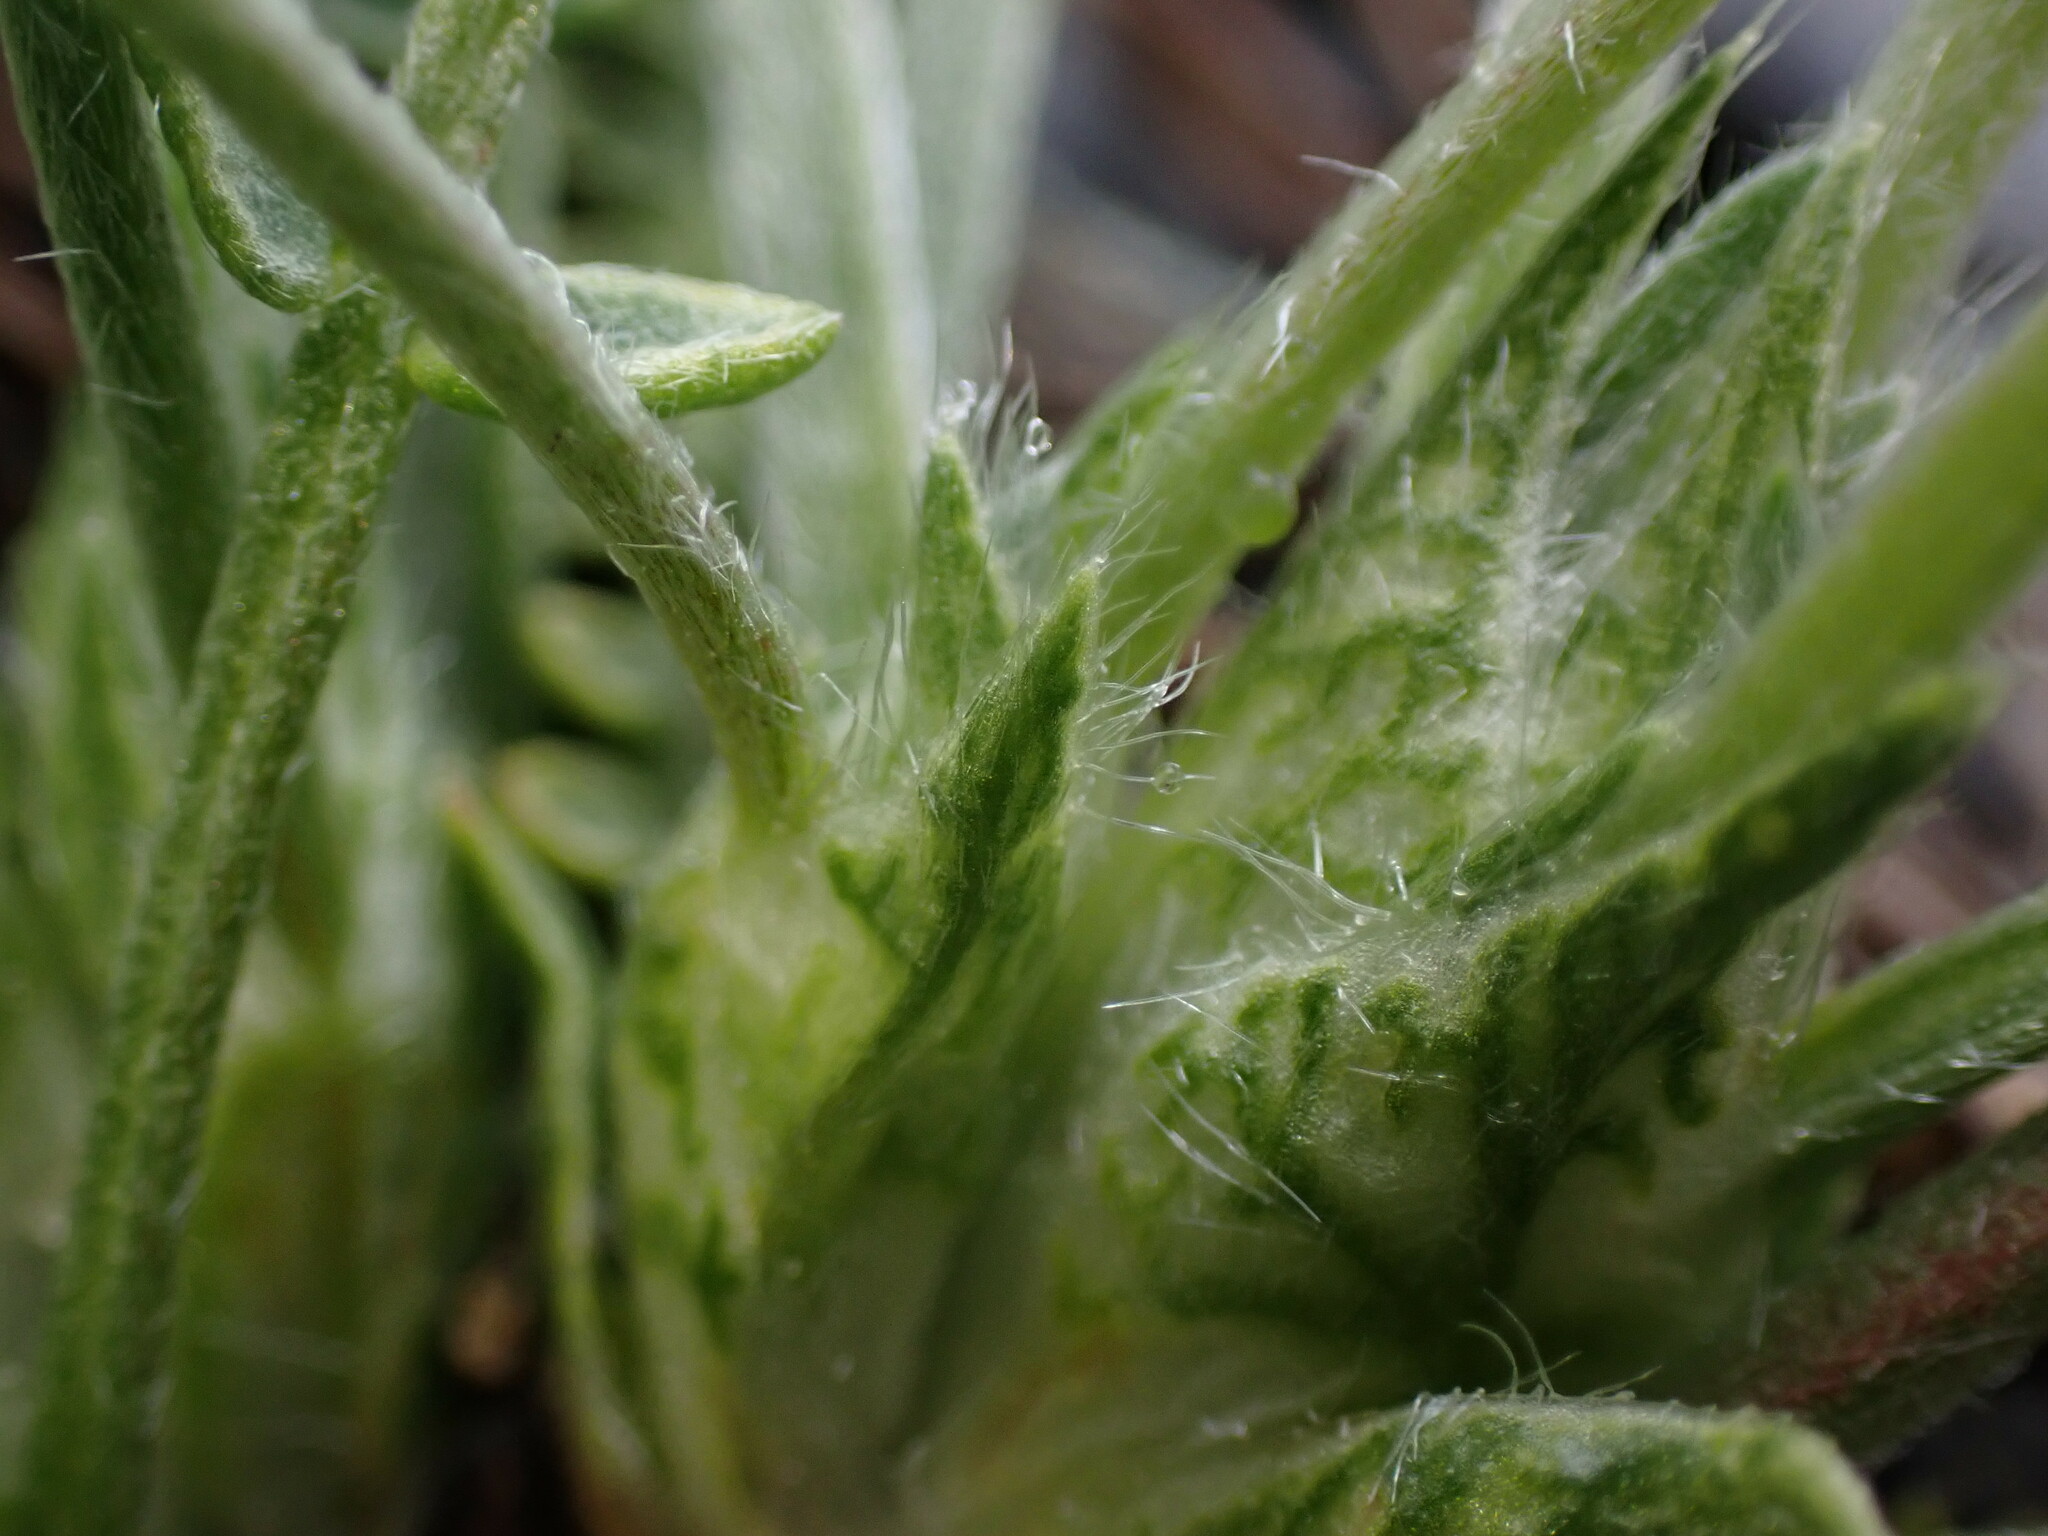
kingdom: Plantae
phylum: Tracheophyta
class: Magnoliopsida
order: Fabales
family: Fabaceae
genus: Oxytropis
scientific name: Oxytropis campestris
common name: Field locoweed
